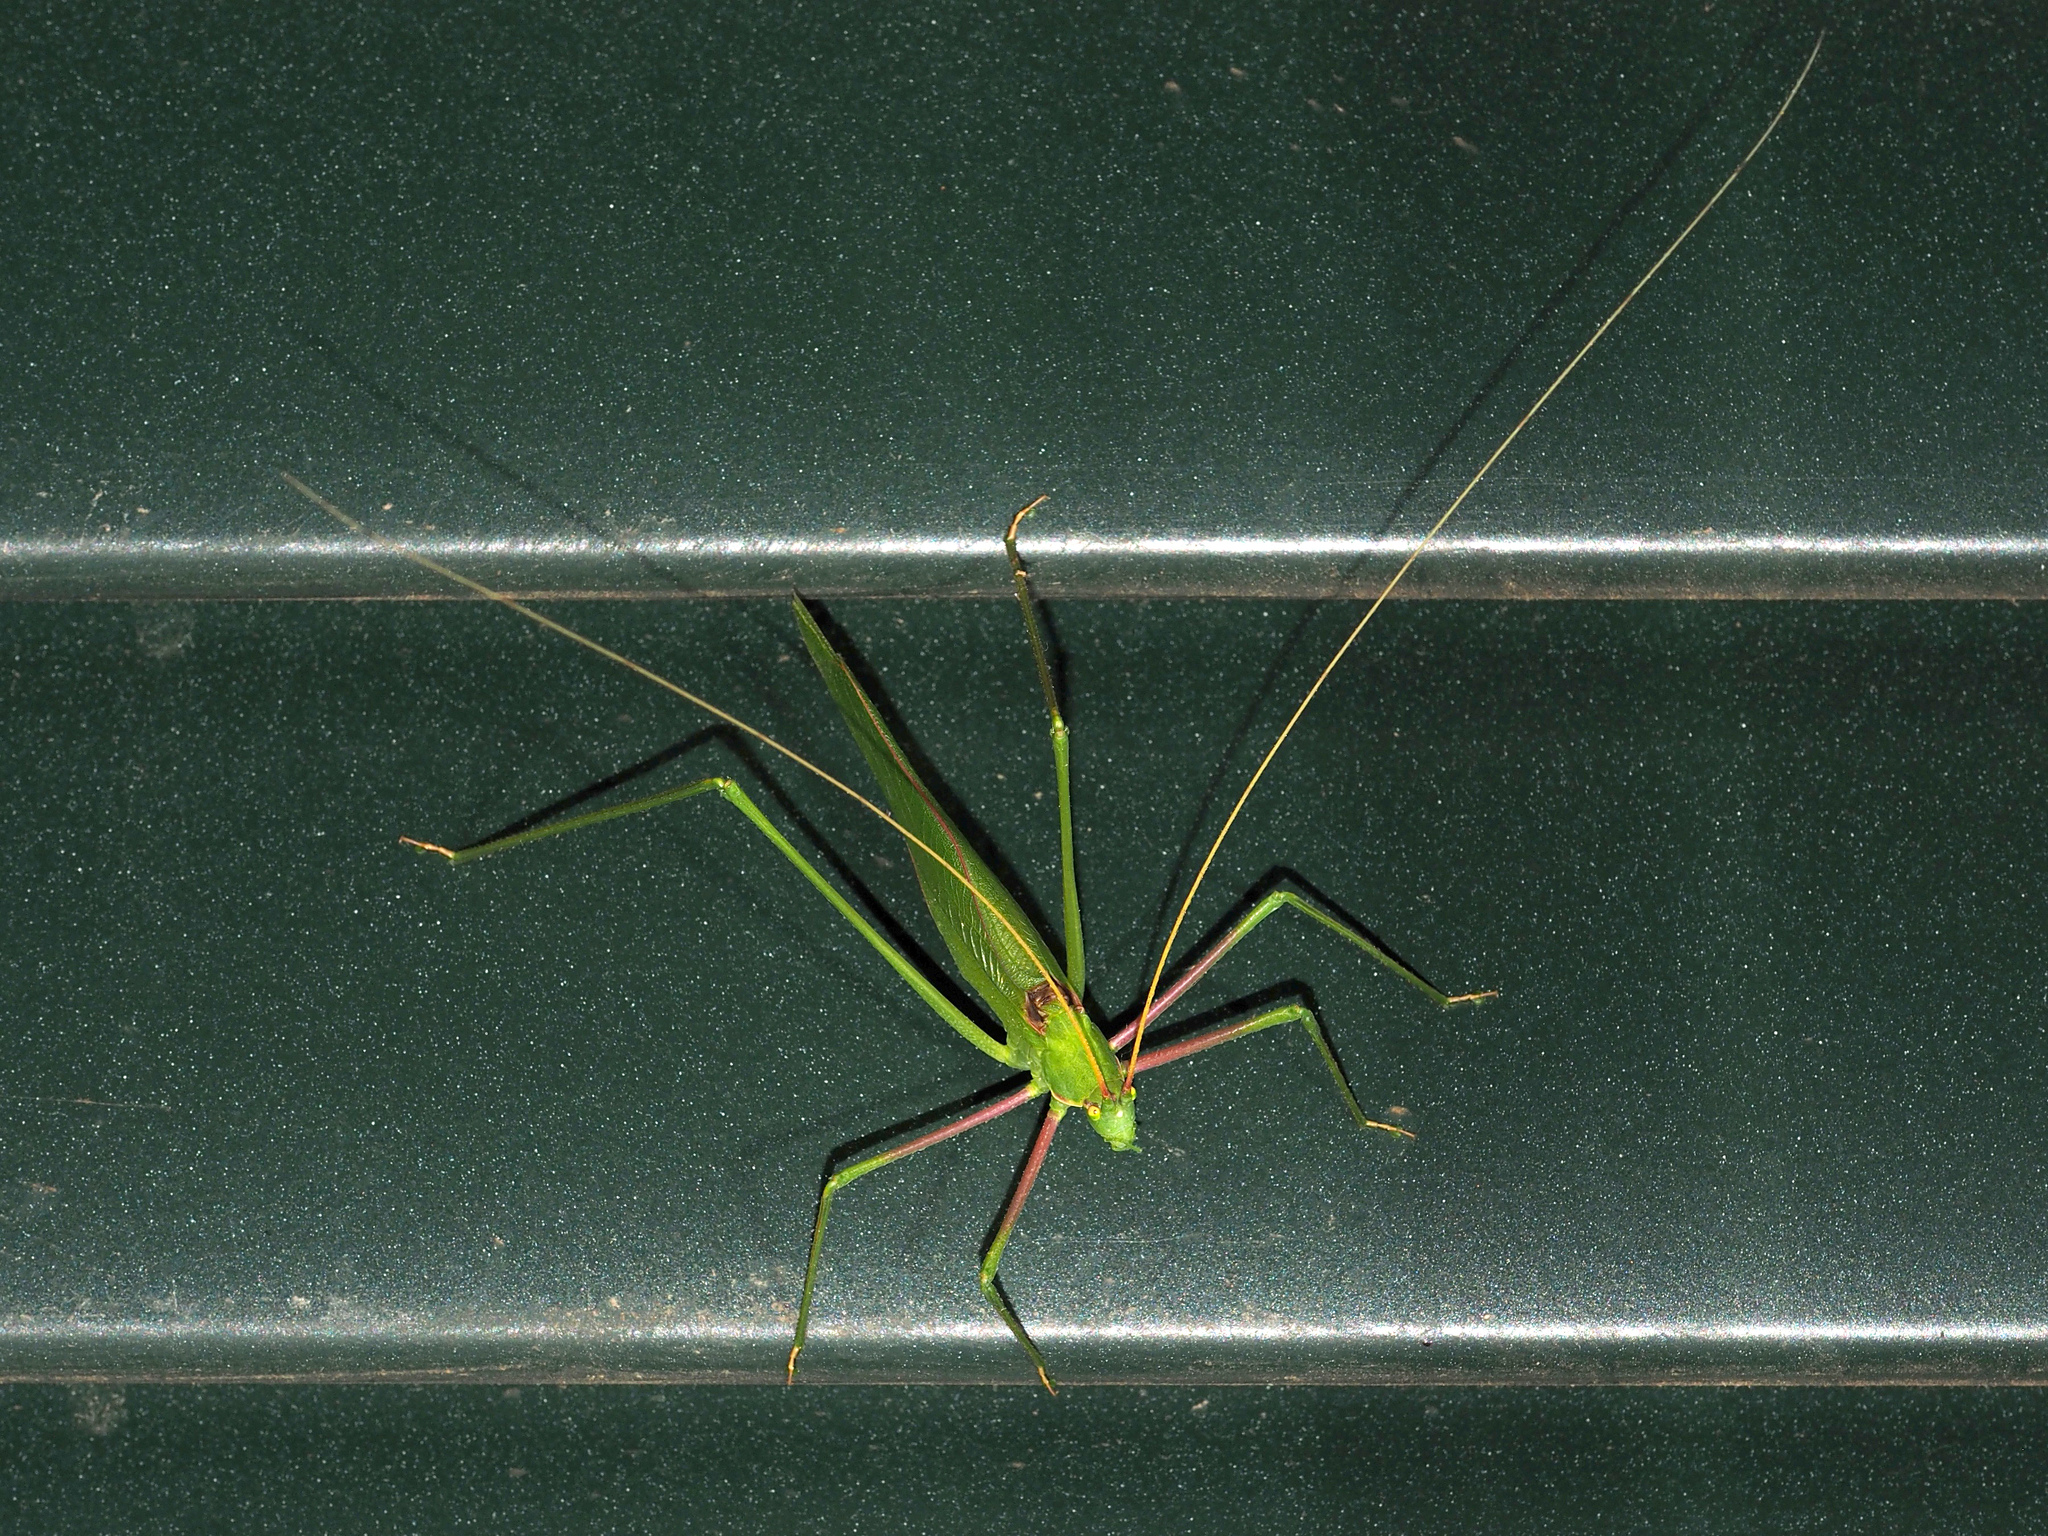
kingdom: Animalia
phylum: Arthropoda
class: Insecta
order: Orthoptera
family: Tettigoniidae
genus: Acrometopa
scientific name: Acrometopa italica
